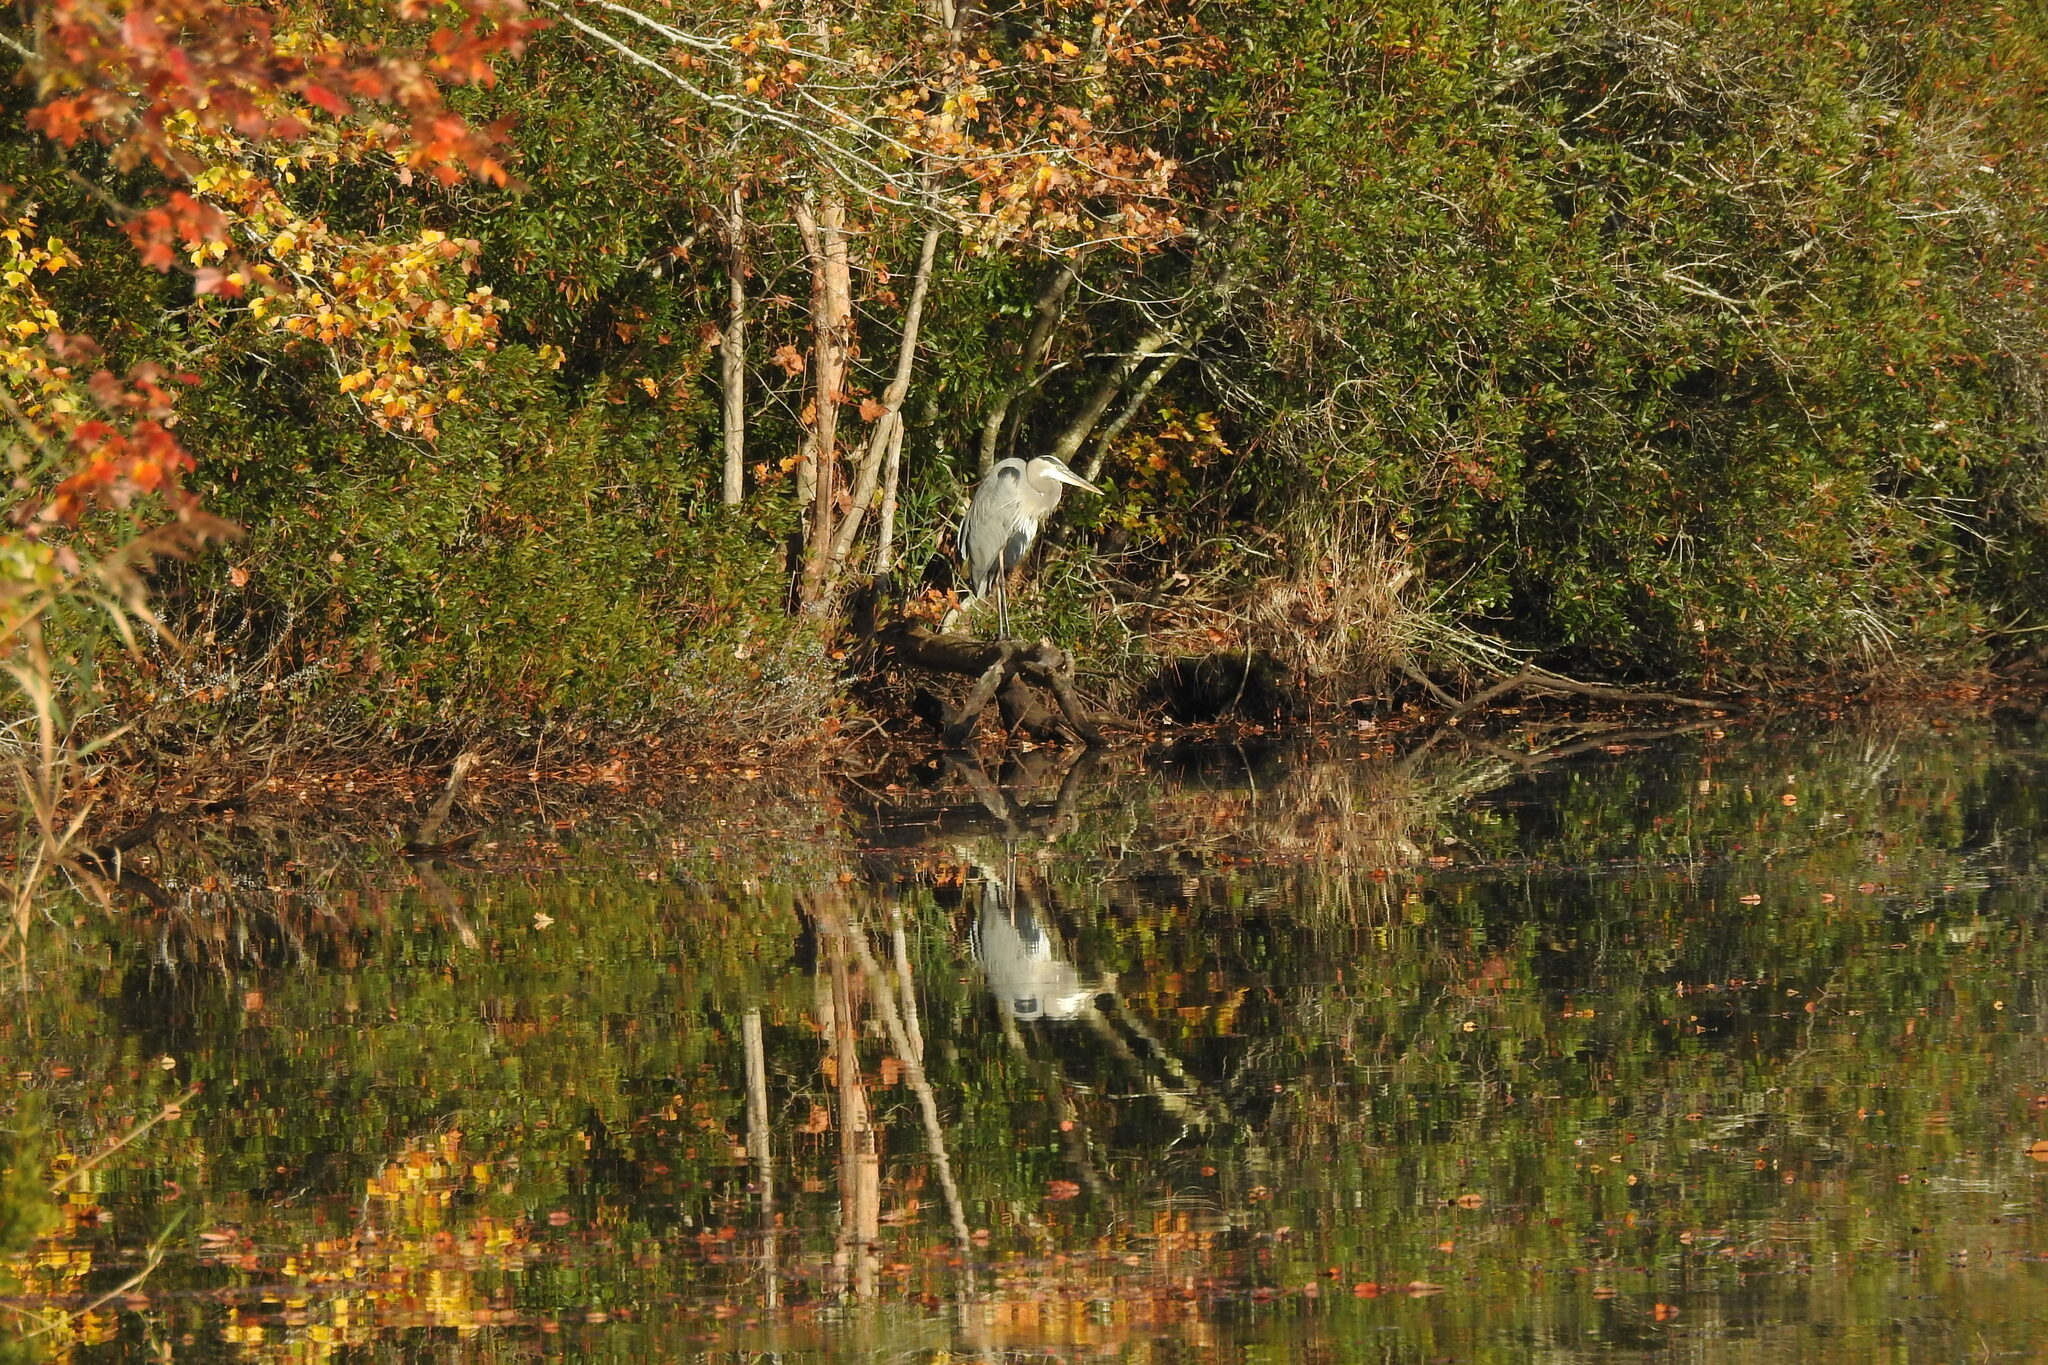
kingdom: Animalia
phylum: Chordata
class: Aves
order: Pelecaniformes
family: Ardeidae
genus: Ardea
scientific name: Ardea herodias
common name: Great blue heron
